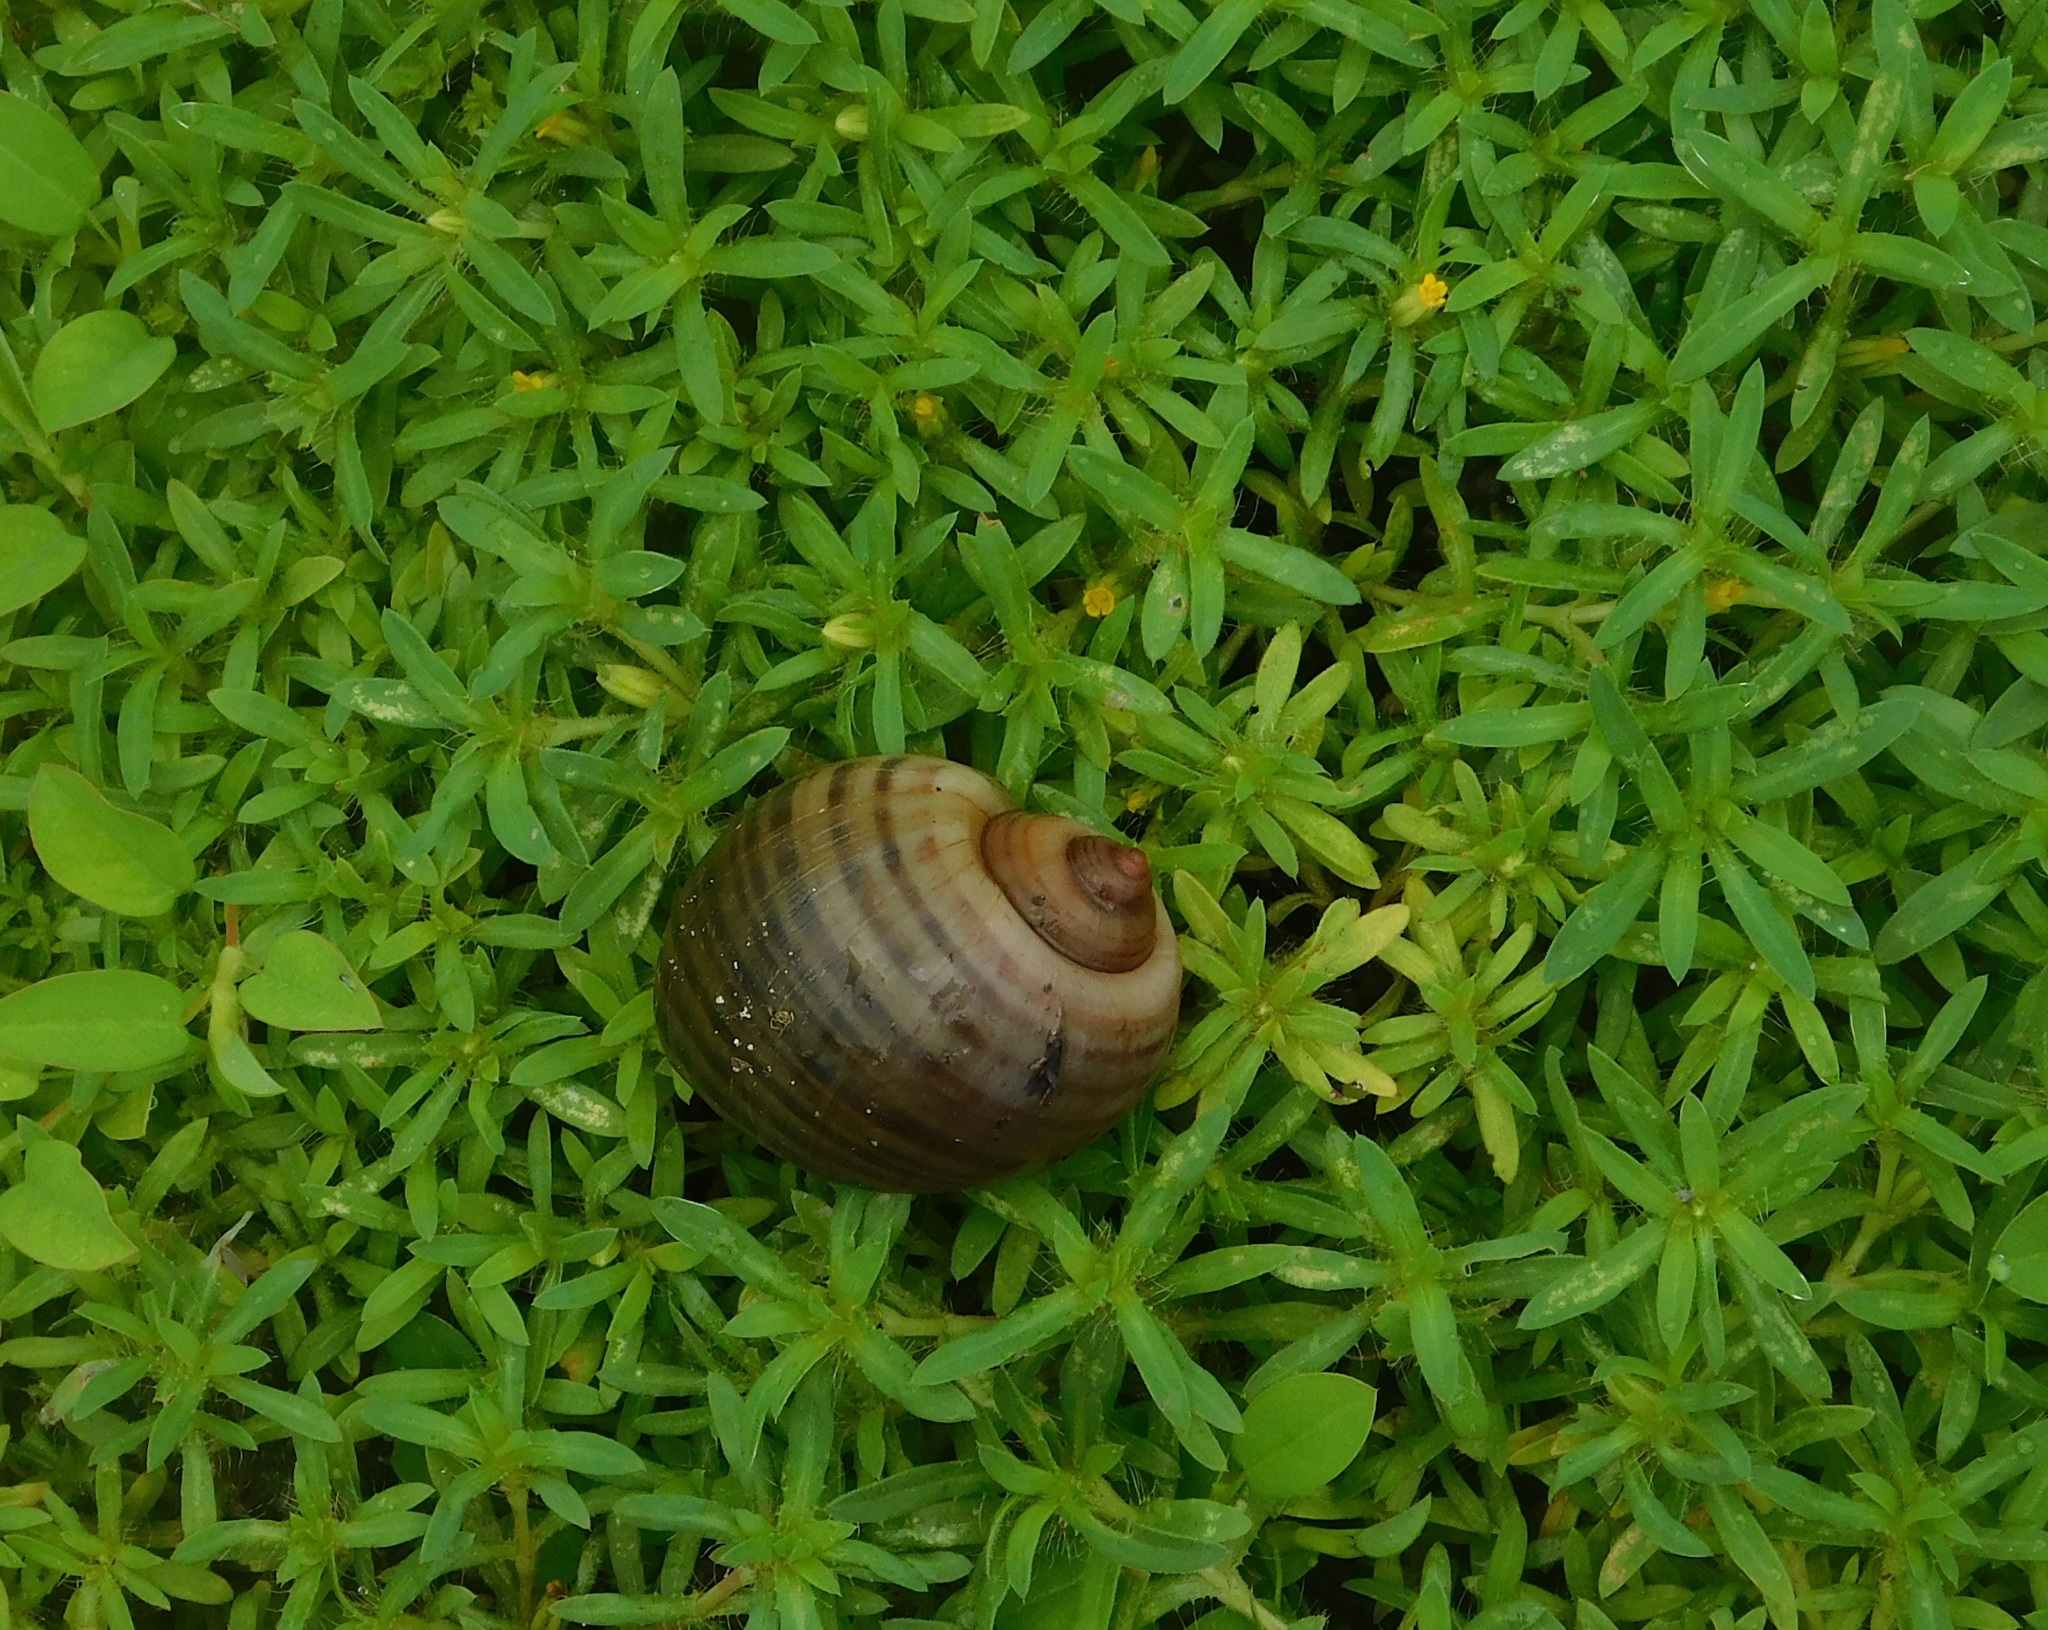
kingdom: Animalia
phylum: Mollusca
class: Gastropoda
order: Architaenioglossa
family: Ampullariidae
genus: Pomacea
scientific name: Pomacea maculata
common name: Giant applesnail
